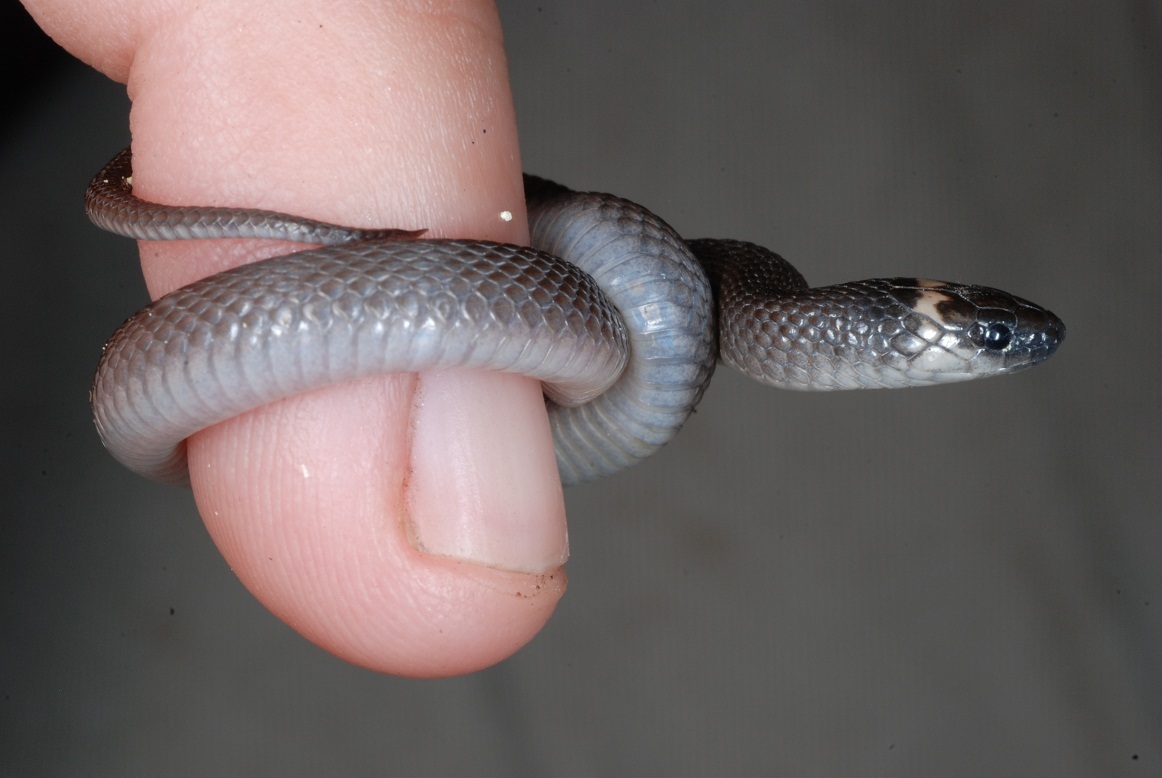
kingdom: Animalia
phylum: Chordata
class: Squamata
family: Colubridae
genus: Haldea
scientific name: Haldea striatula
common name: Rough earth snake
